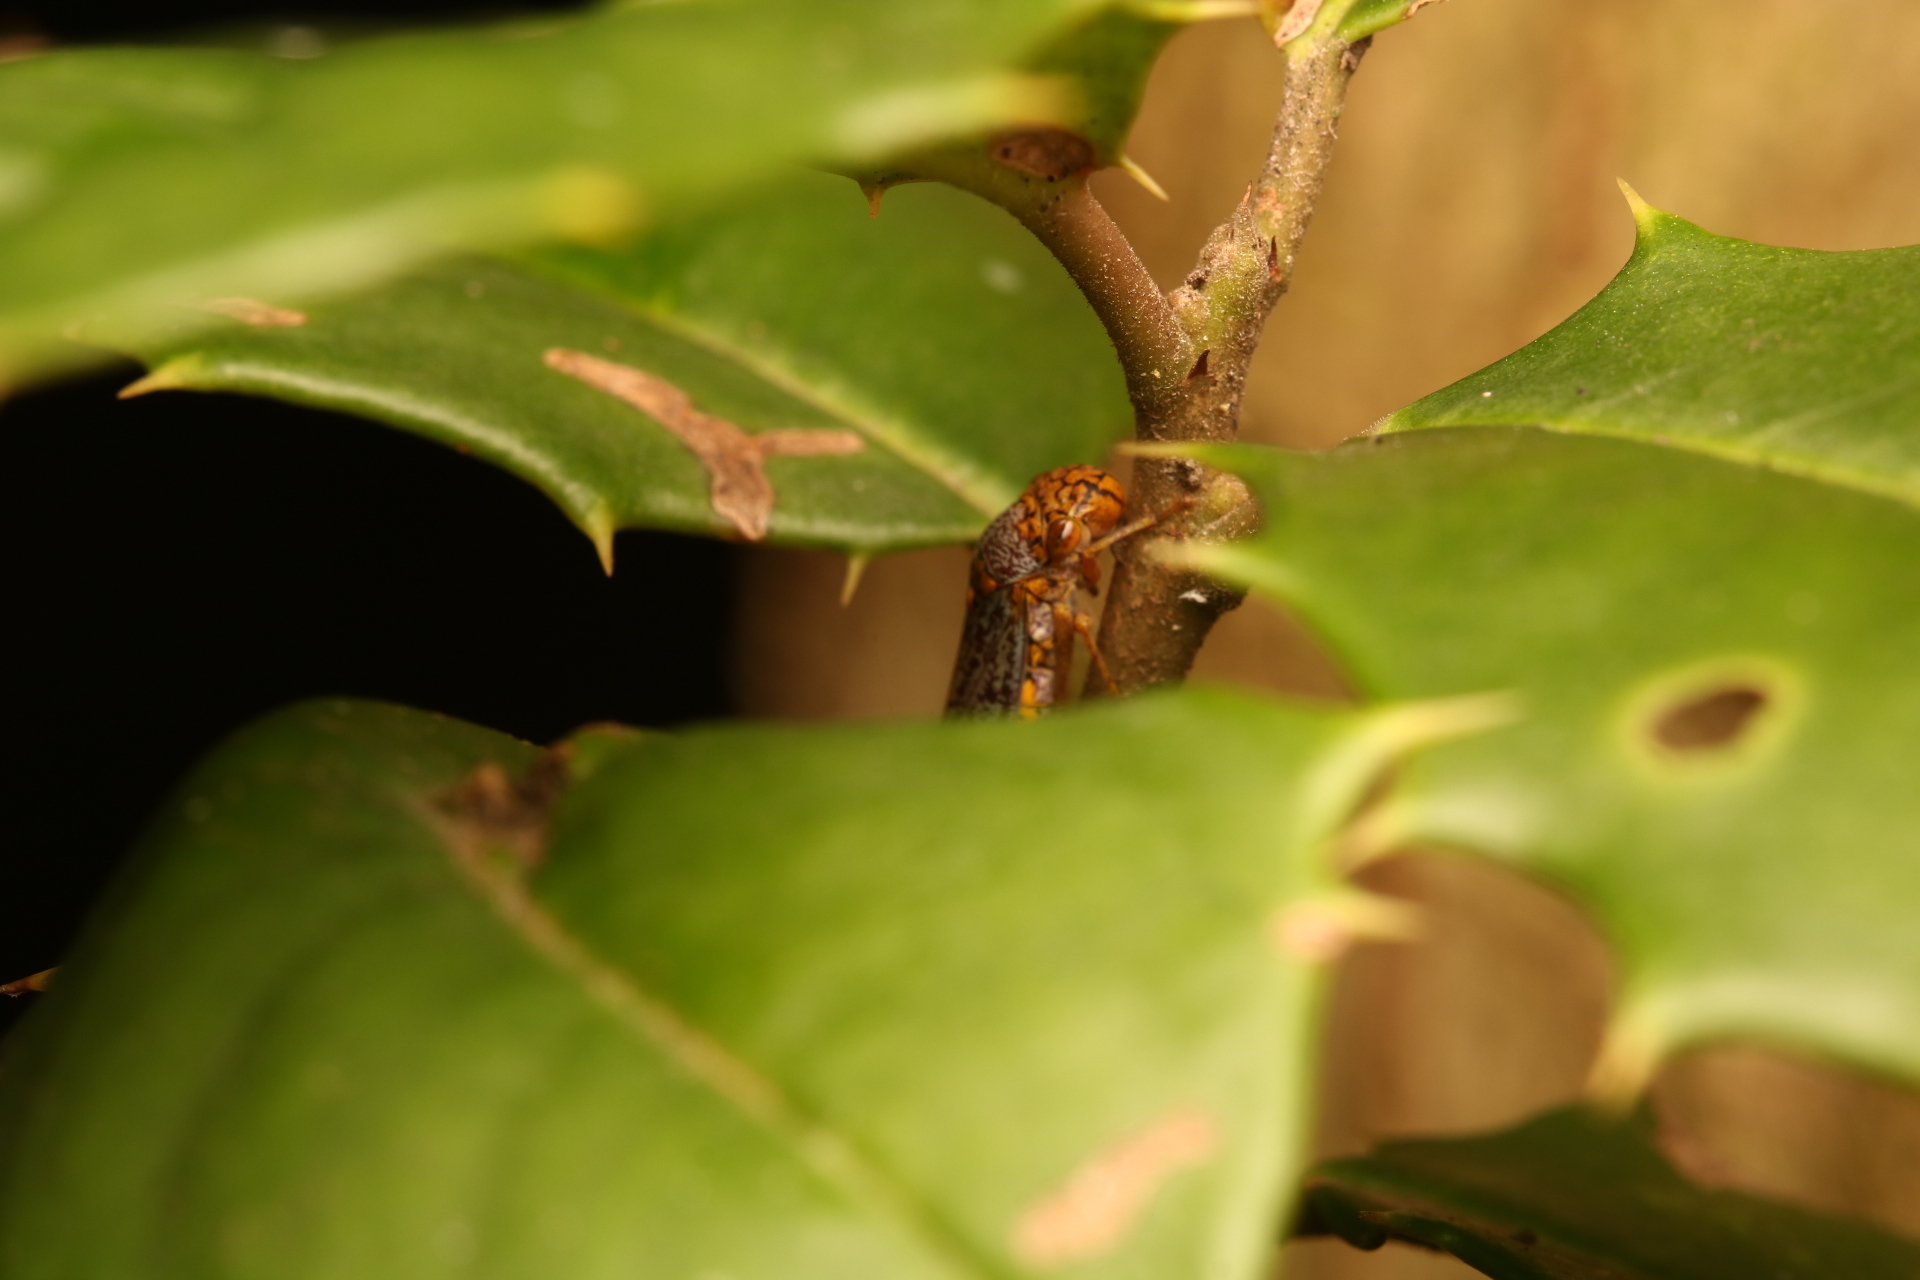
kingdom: Animalia
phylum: Arthropoda
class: Insecta
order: Hemiptera
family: Cicadellidae
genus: Oncometopia
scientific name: Oncometopia orbona
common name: Broad-headed sharpshooter
